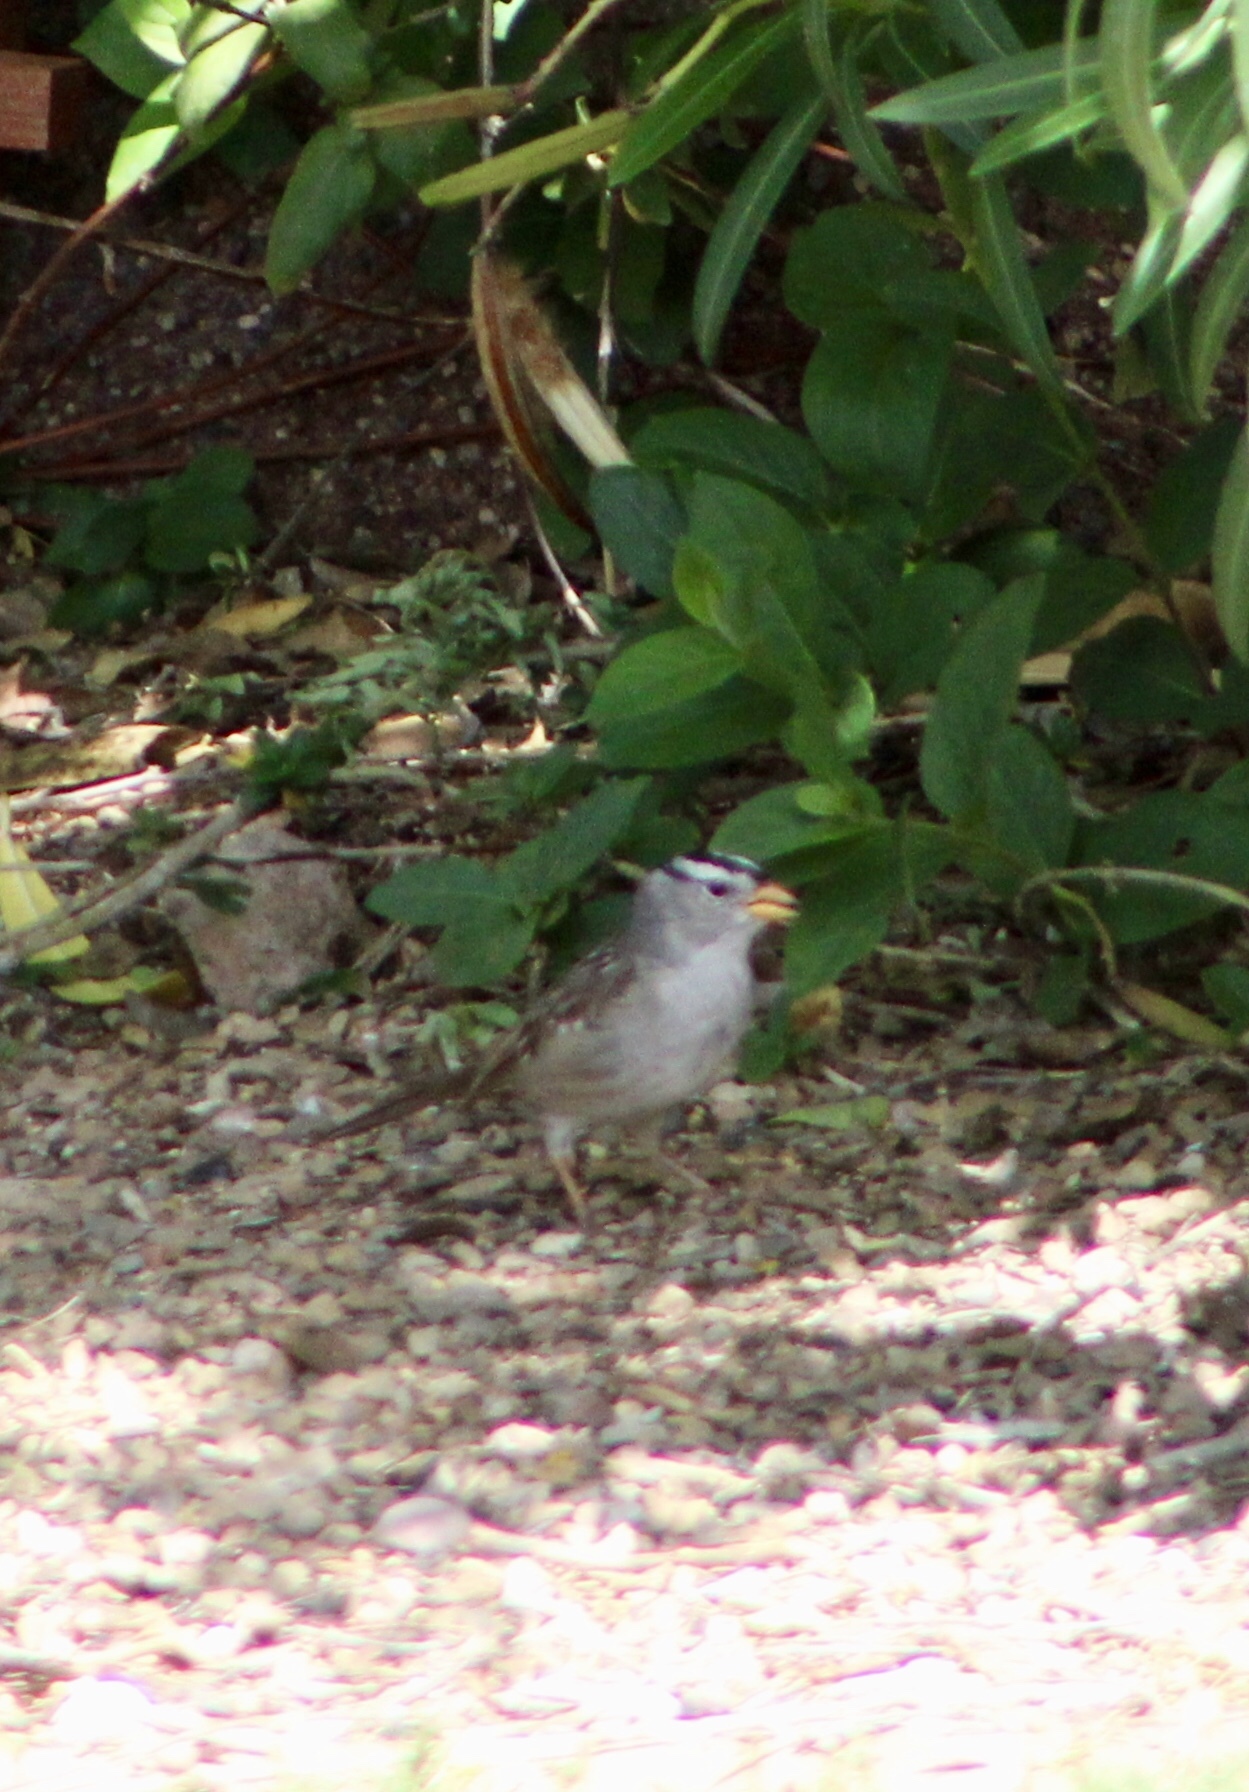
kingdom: Animalia
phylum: Chordata
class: Aves
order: Passeriformes
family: Passerellidae
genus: Zonotrichia
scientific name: Zonotrichia leucophrys
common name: White-crowned sparrow
